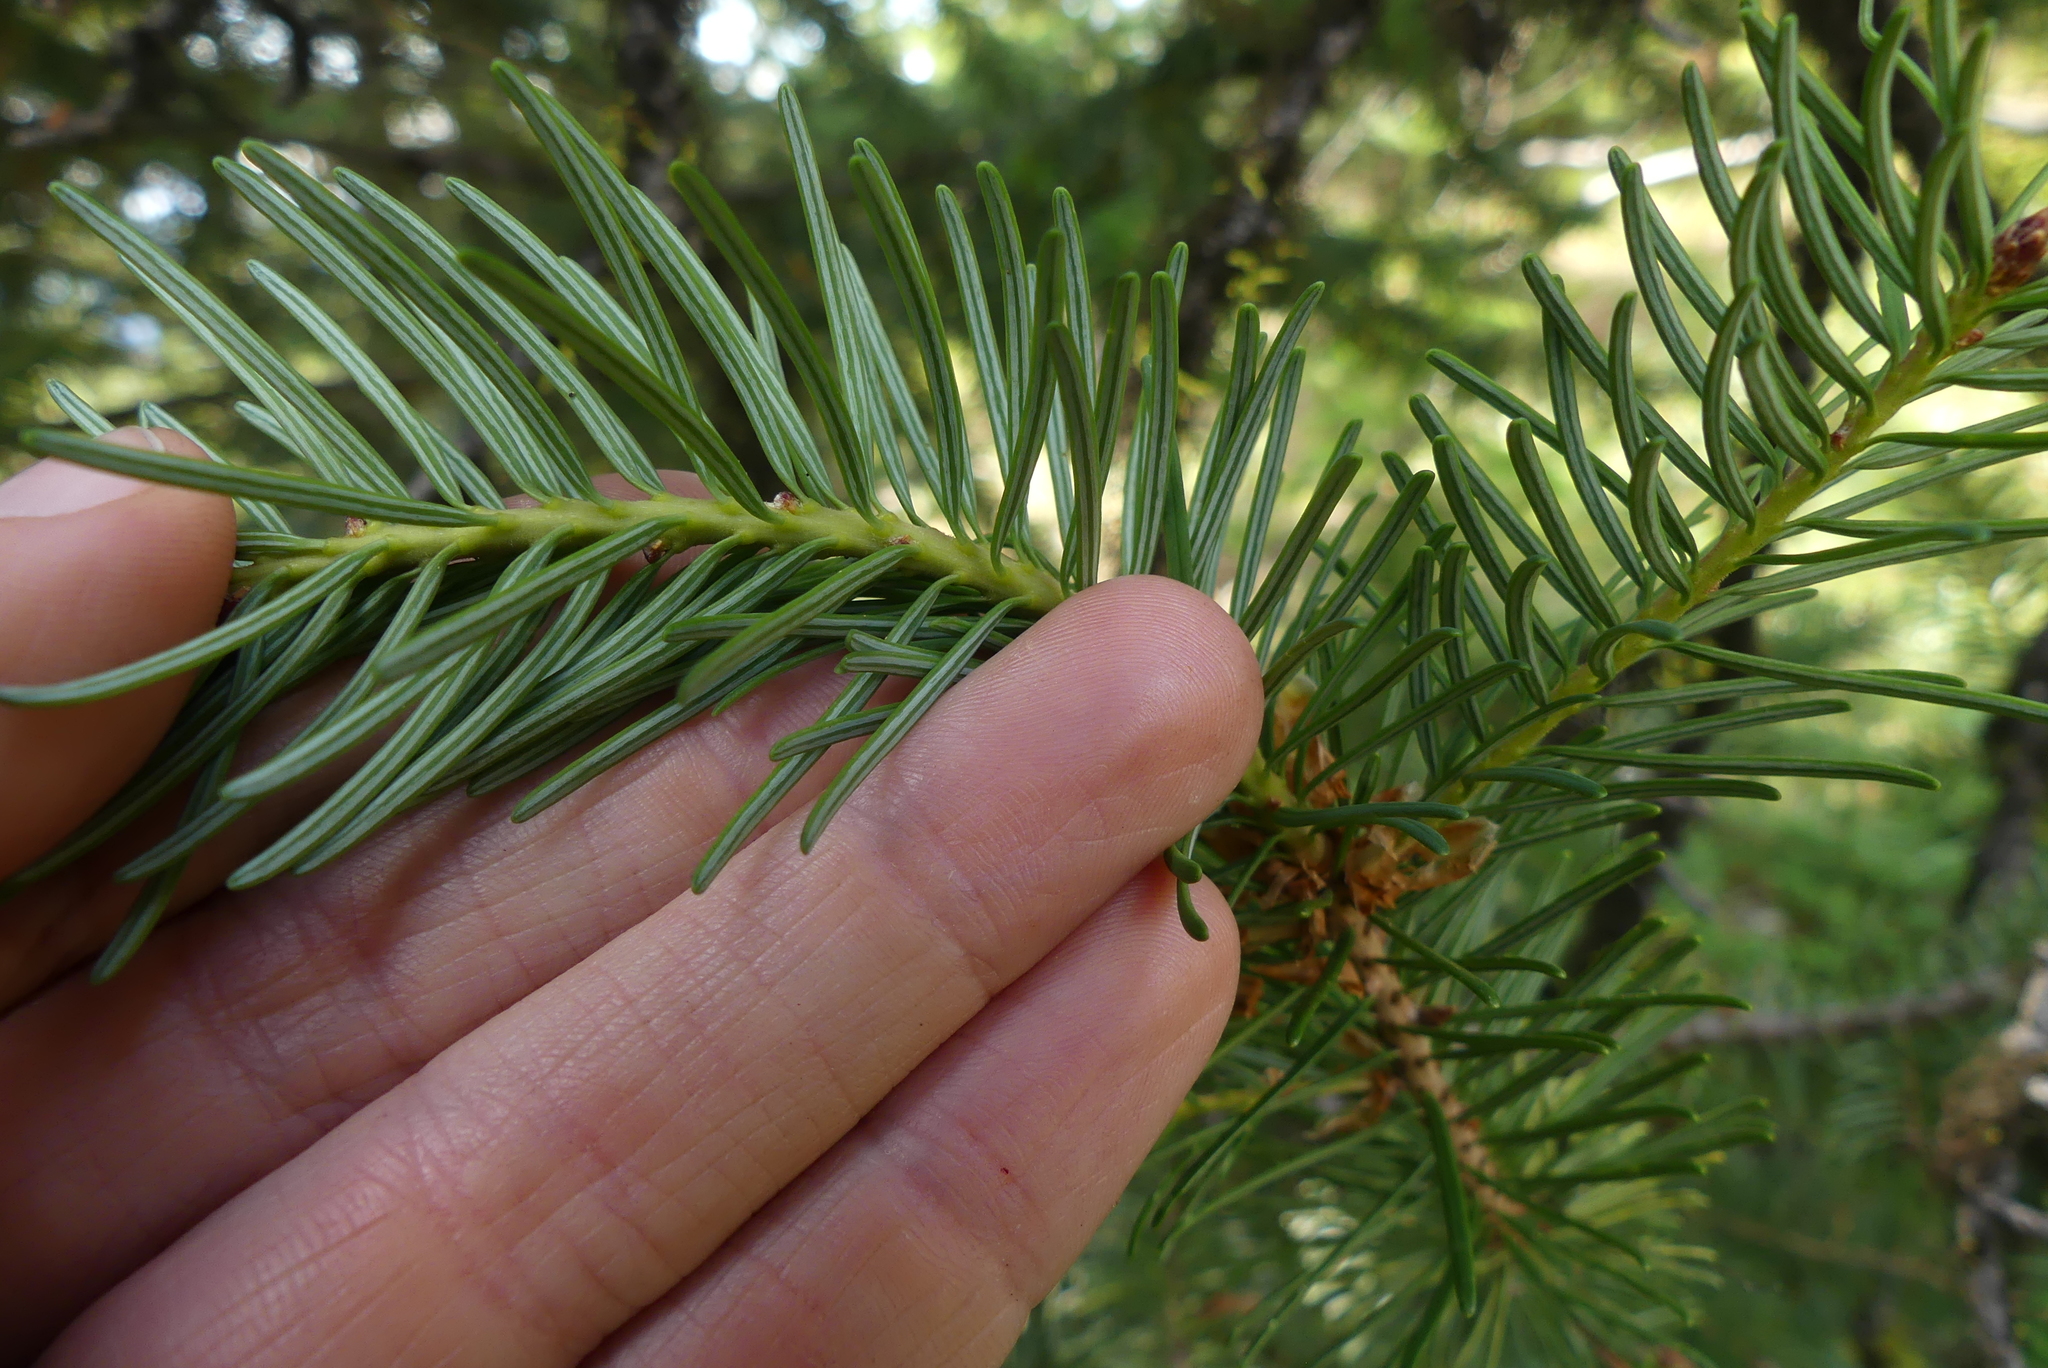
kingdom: Plantae
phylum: Tracheophyta
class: Pinopsida
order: Pinales
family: Pinaceae
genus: Pseudotsuga
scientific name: Pseudotsuga menziesii
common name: Douglas fir
